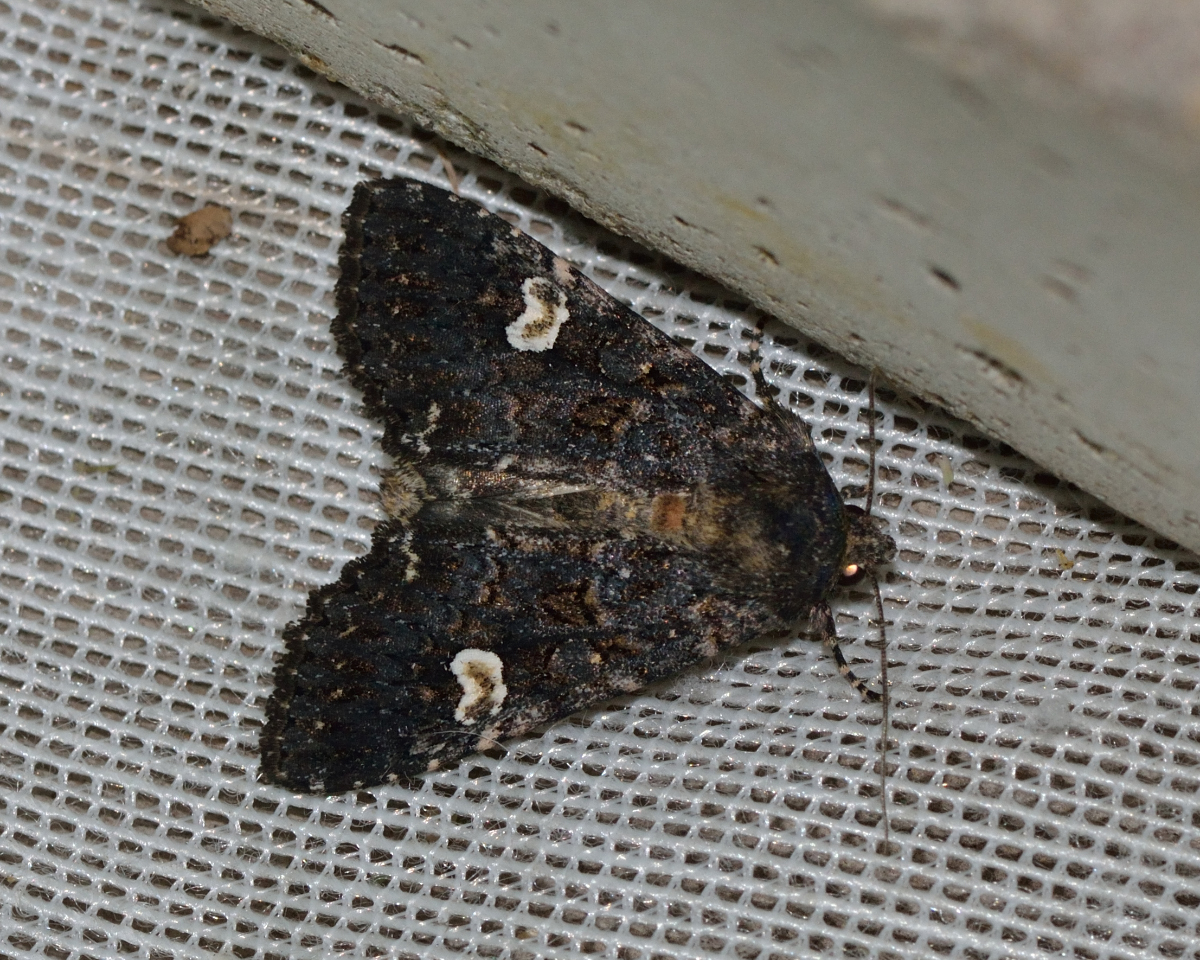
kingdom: Animalia
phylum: Arthropoda
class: Insecta
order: Lepidoptera
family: Noctuidae
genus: Melanchra
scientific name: Melanchra persicariae
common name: Dot moth
